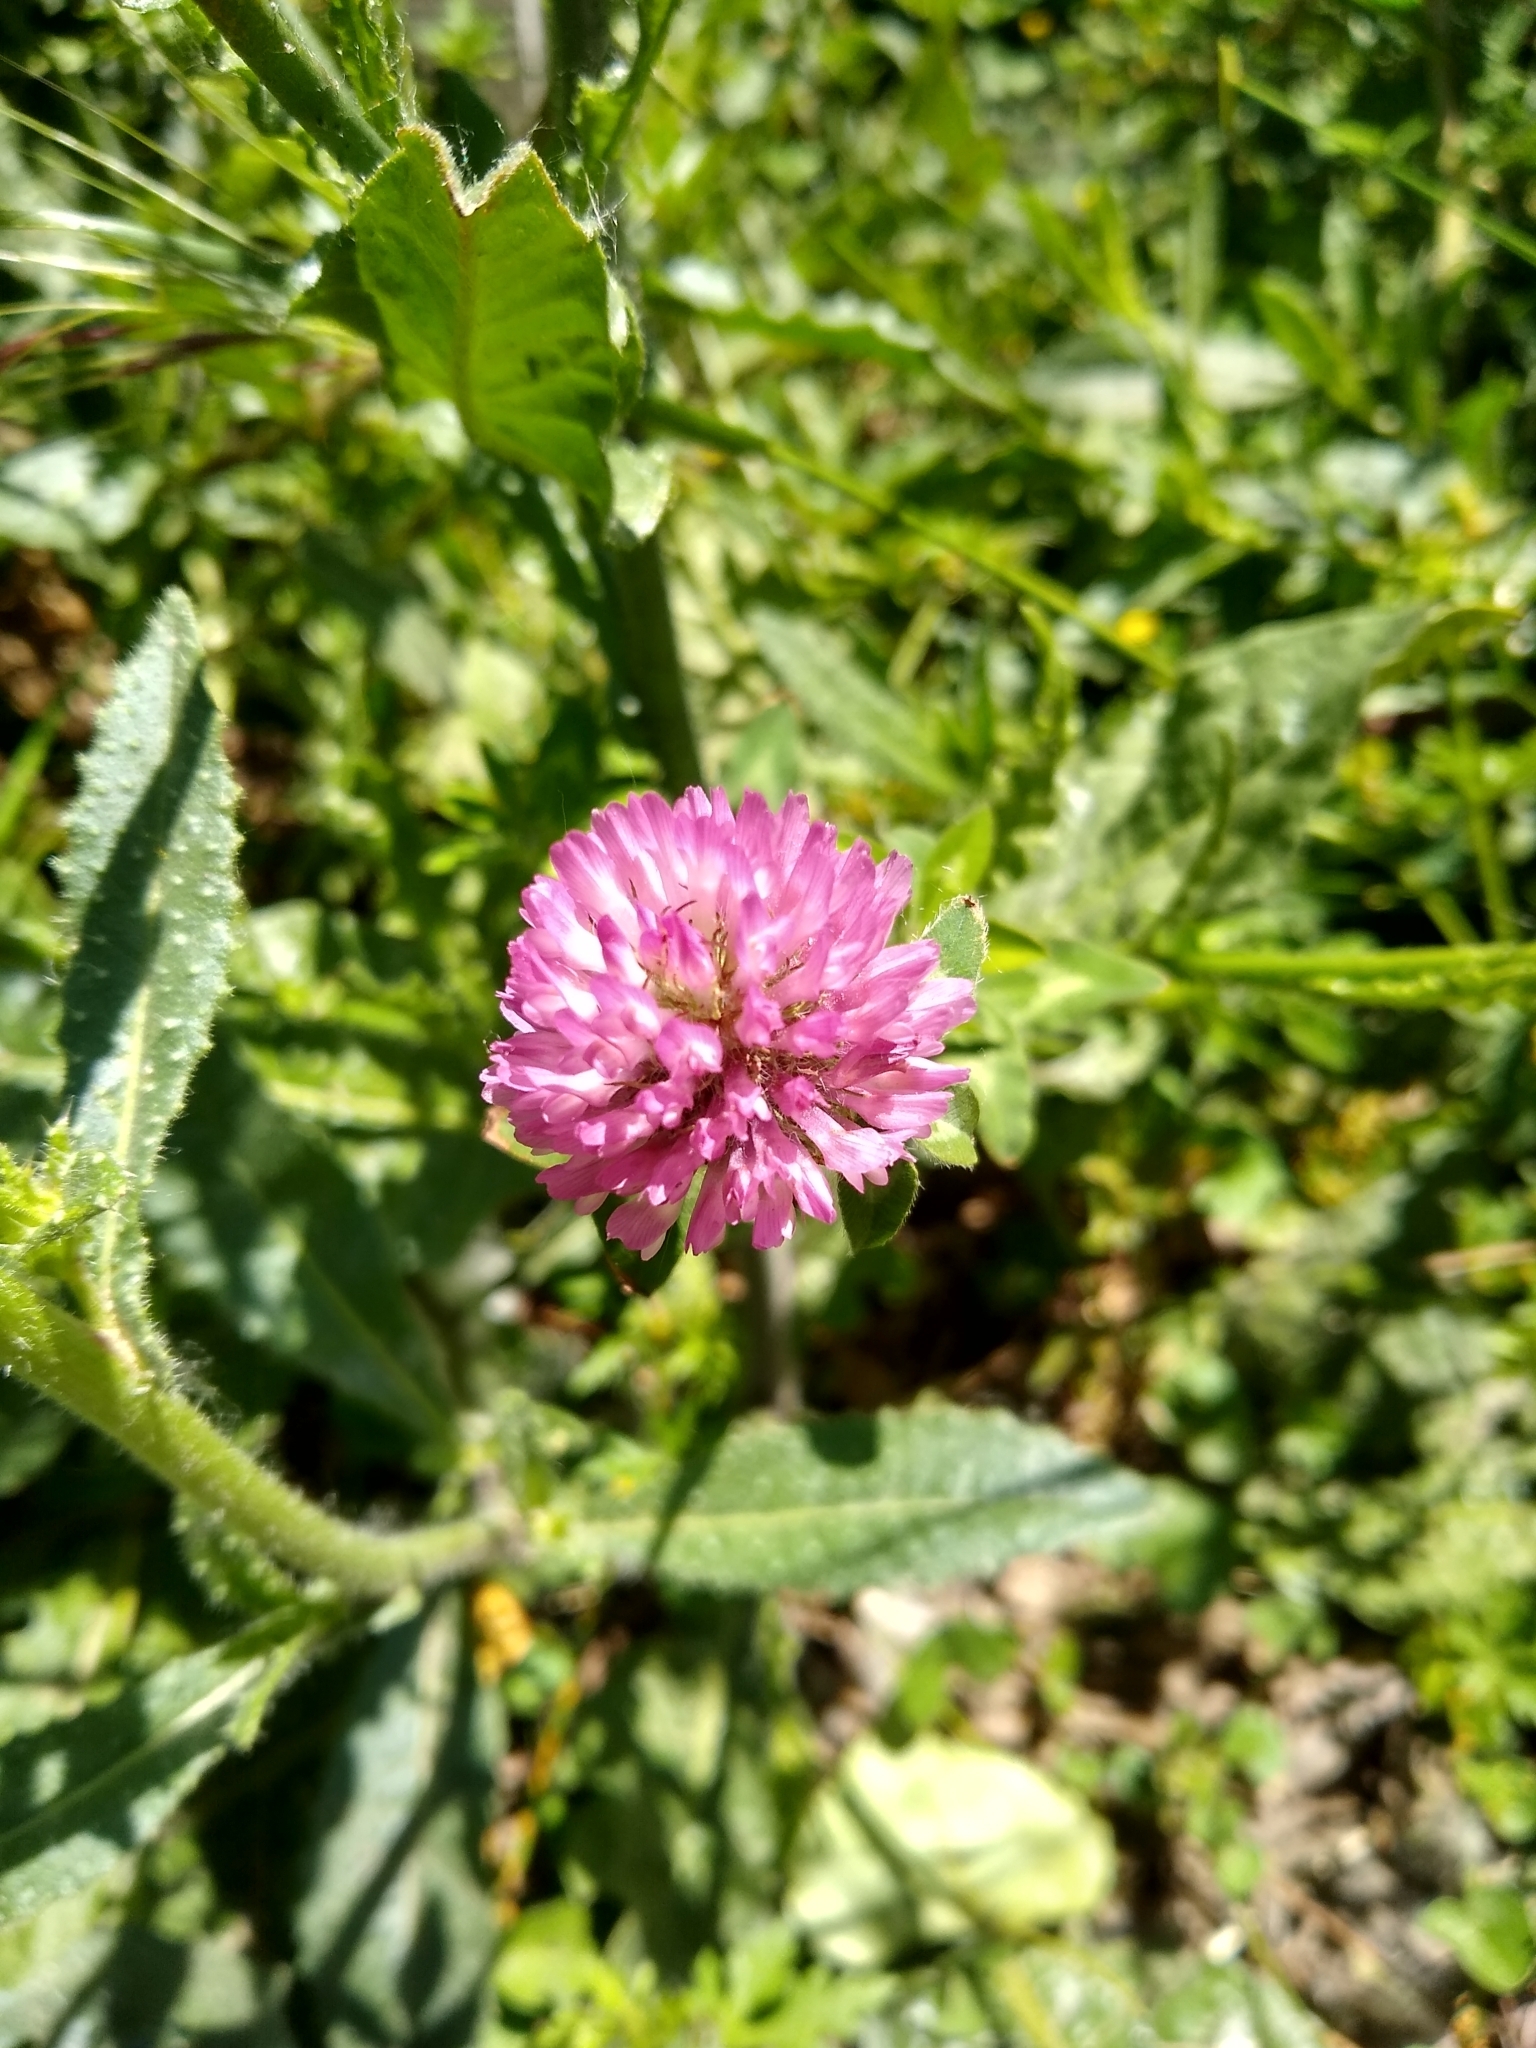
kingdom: Plantae
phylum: Tracheophyta
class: Magnoliopsida
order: Fabales
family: Fabaceae
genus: Trifolium
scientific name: Trifolium pratense
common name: Red clover
